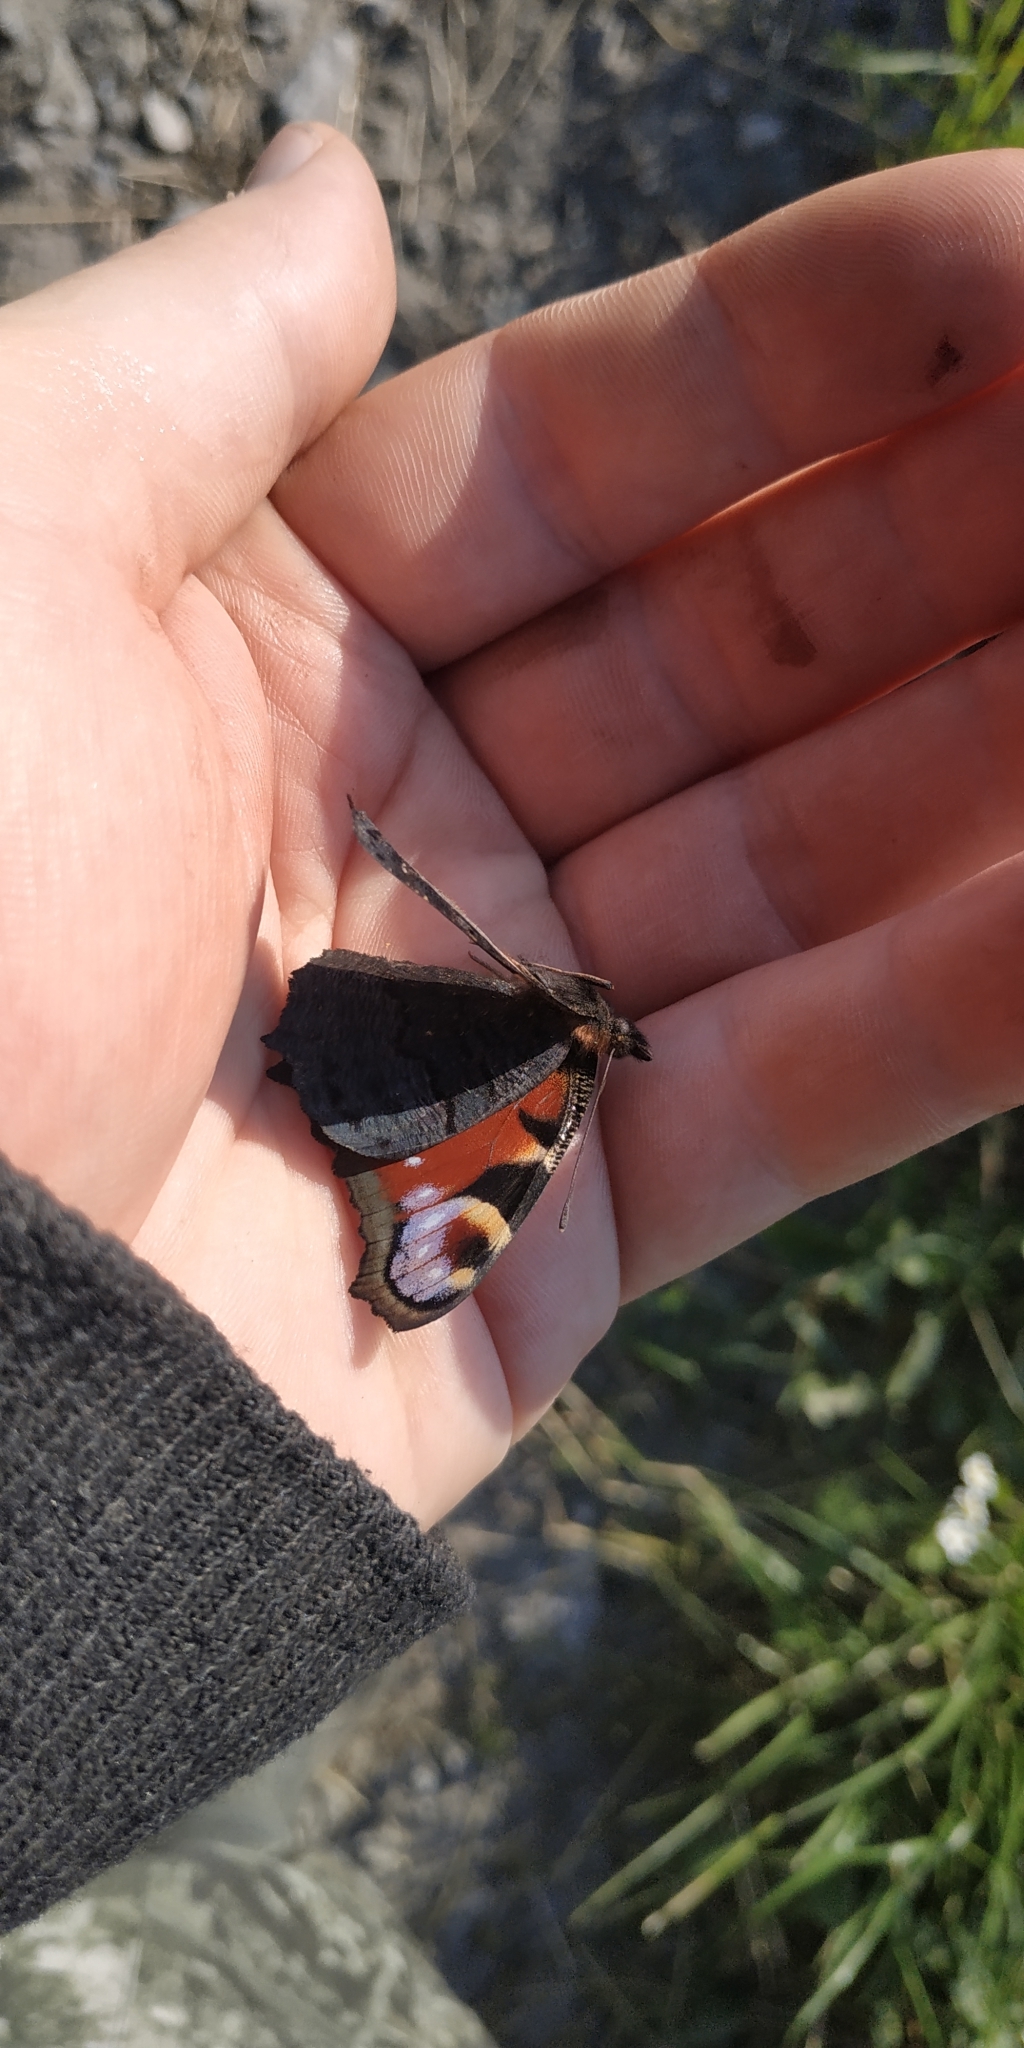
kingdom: Animalia
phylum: Arthropoda
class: Insecta
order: Lepidoptera
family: Nymphalidae
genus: Aglais
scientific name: Aglais io
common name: Peacock
